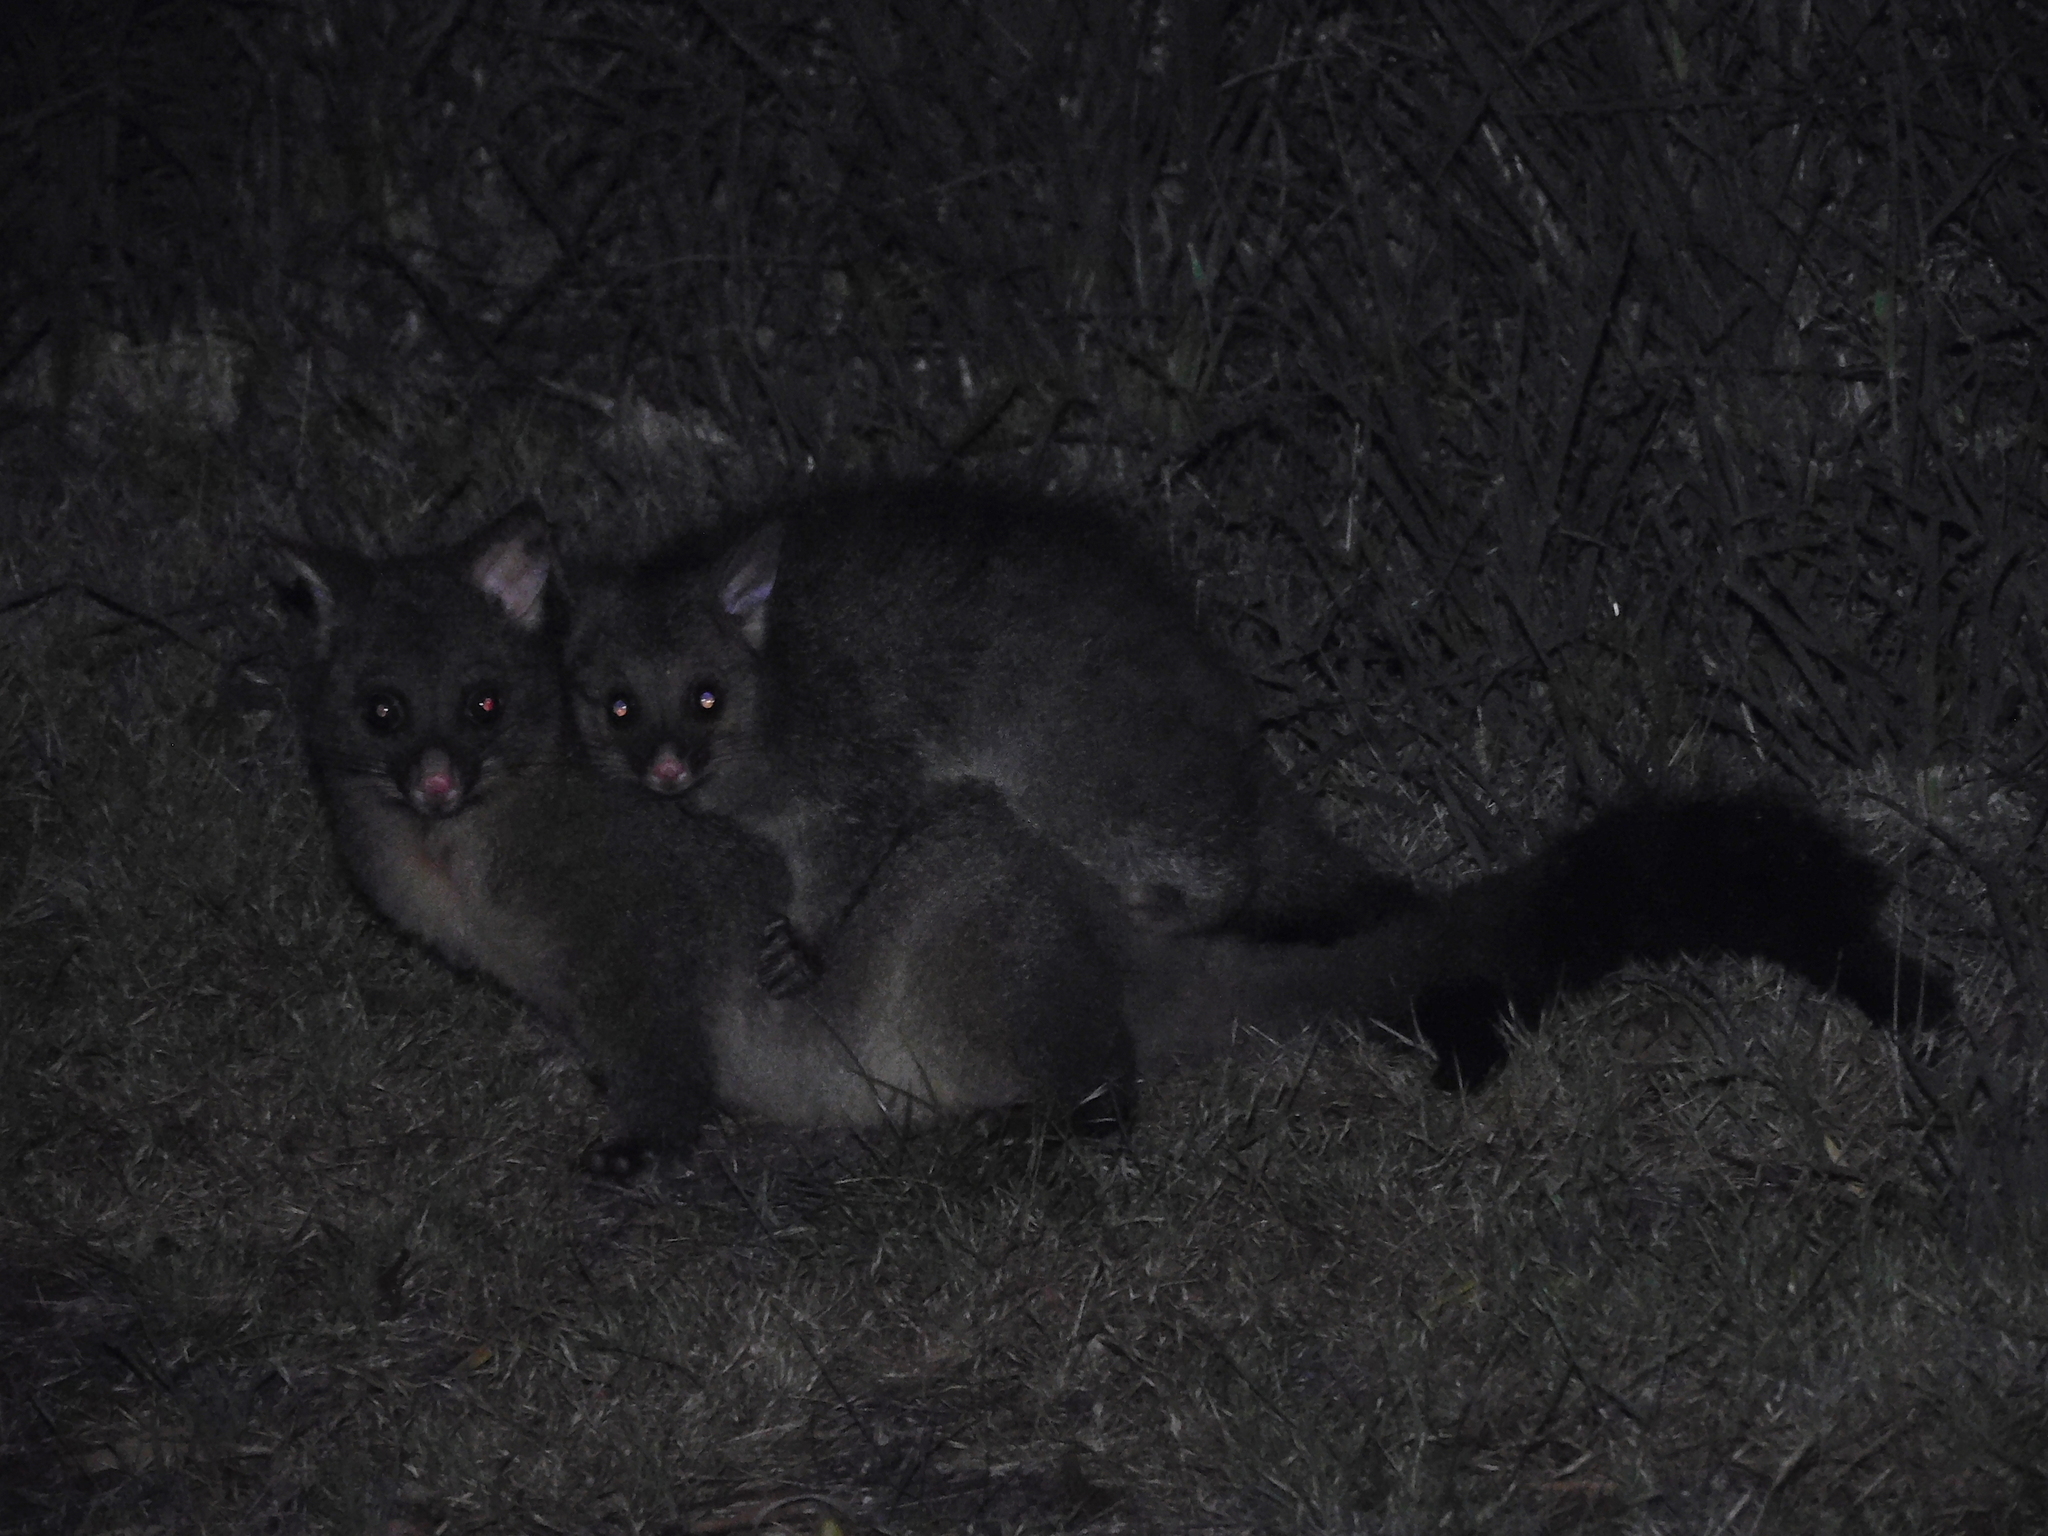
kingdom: Animalia
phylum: Chordata
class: Mammalia
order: Diprotodontia
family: Phalangeridae
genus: Trichosurus
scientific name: Trichosurus vulpecula
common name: Common brushtail
